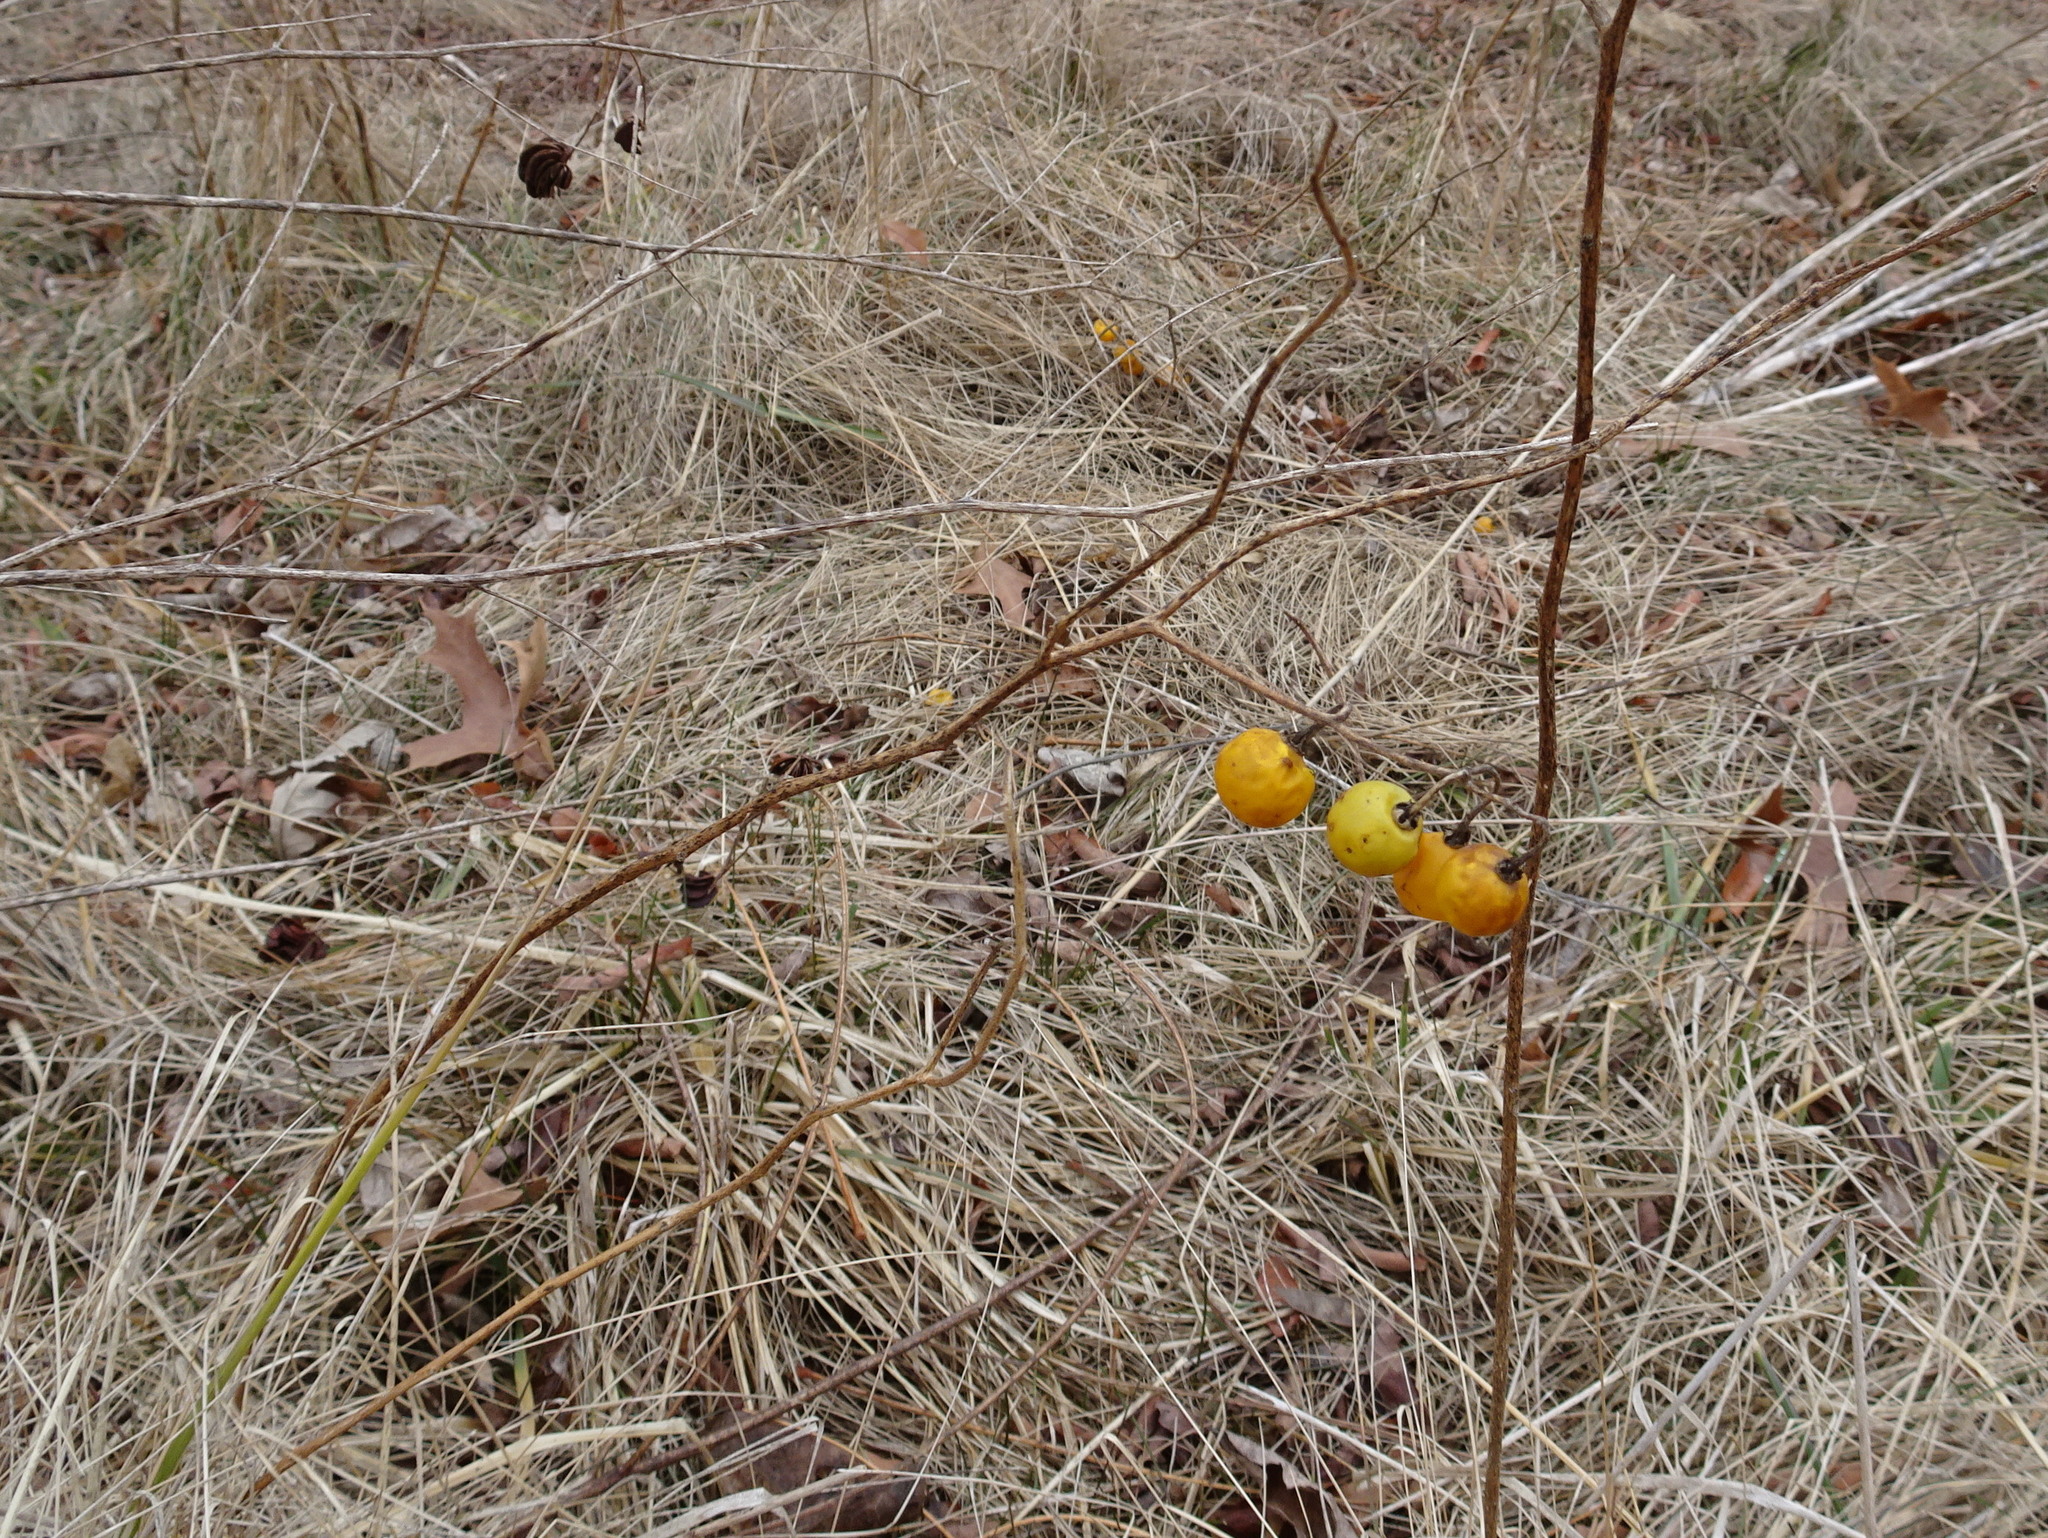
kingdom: Plantae
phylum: Tracheophyta
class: Magnoliopsida
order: Solanales
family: Solanaceae
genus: Solanum
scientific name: Solanum carolinense
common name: Horse-nettle
